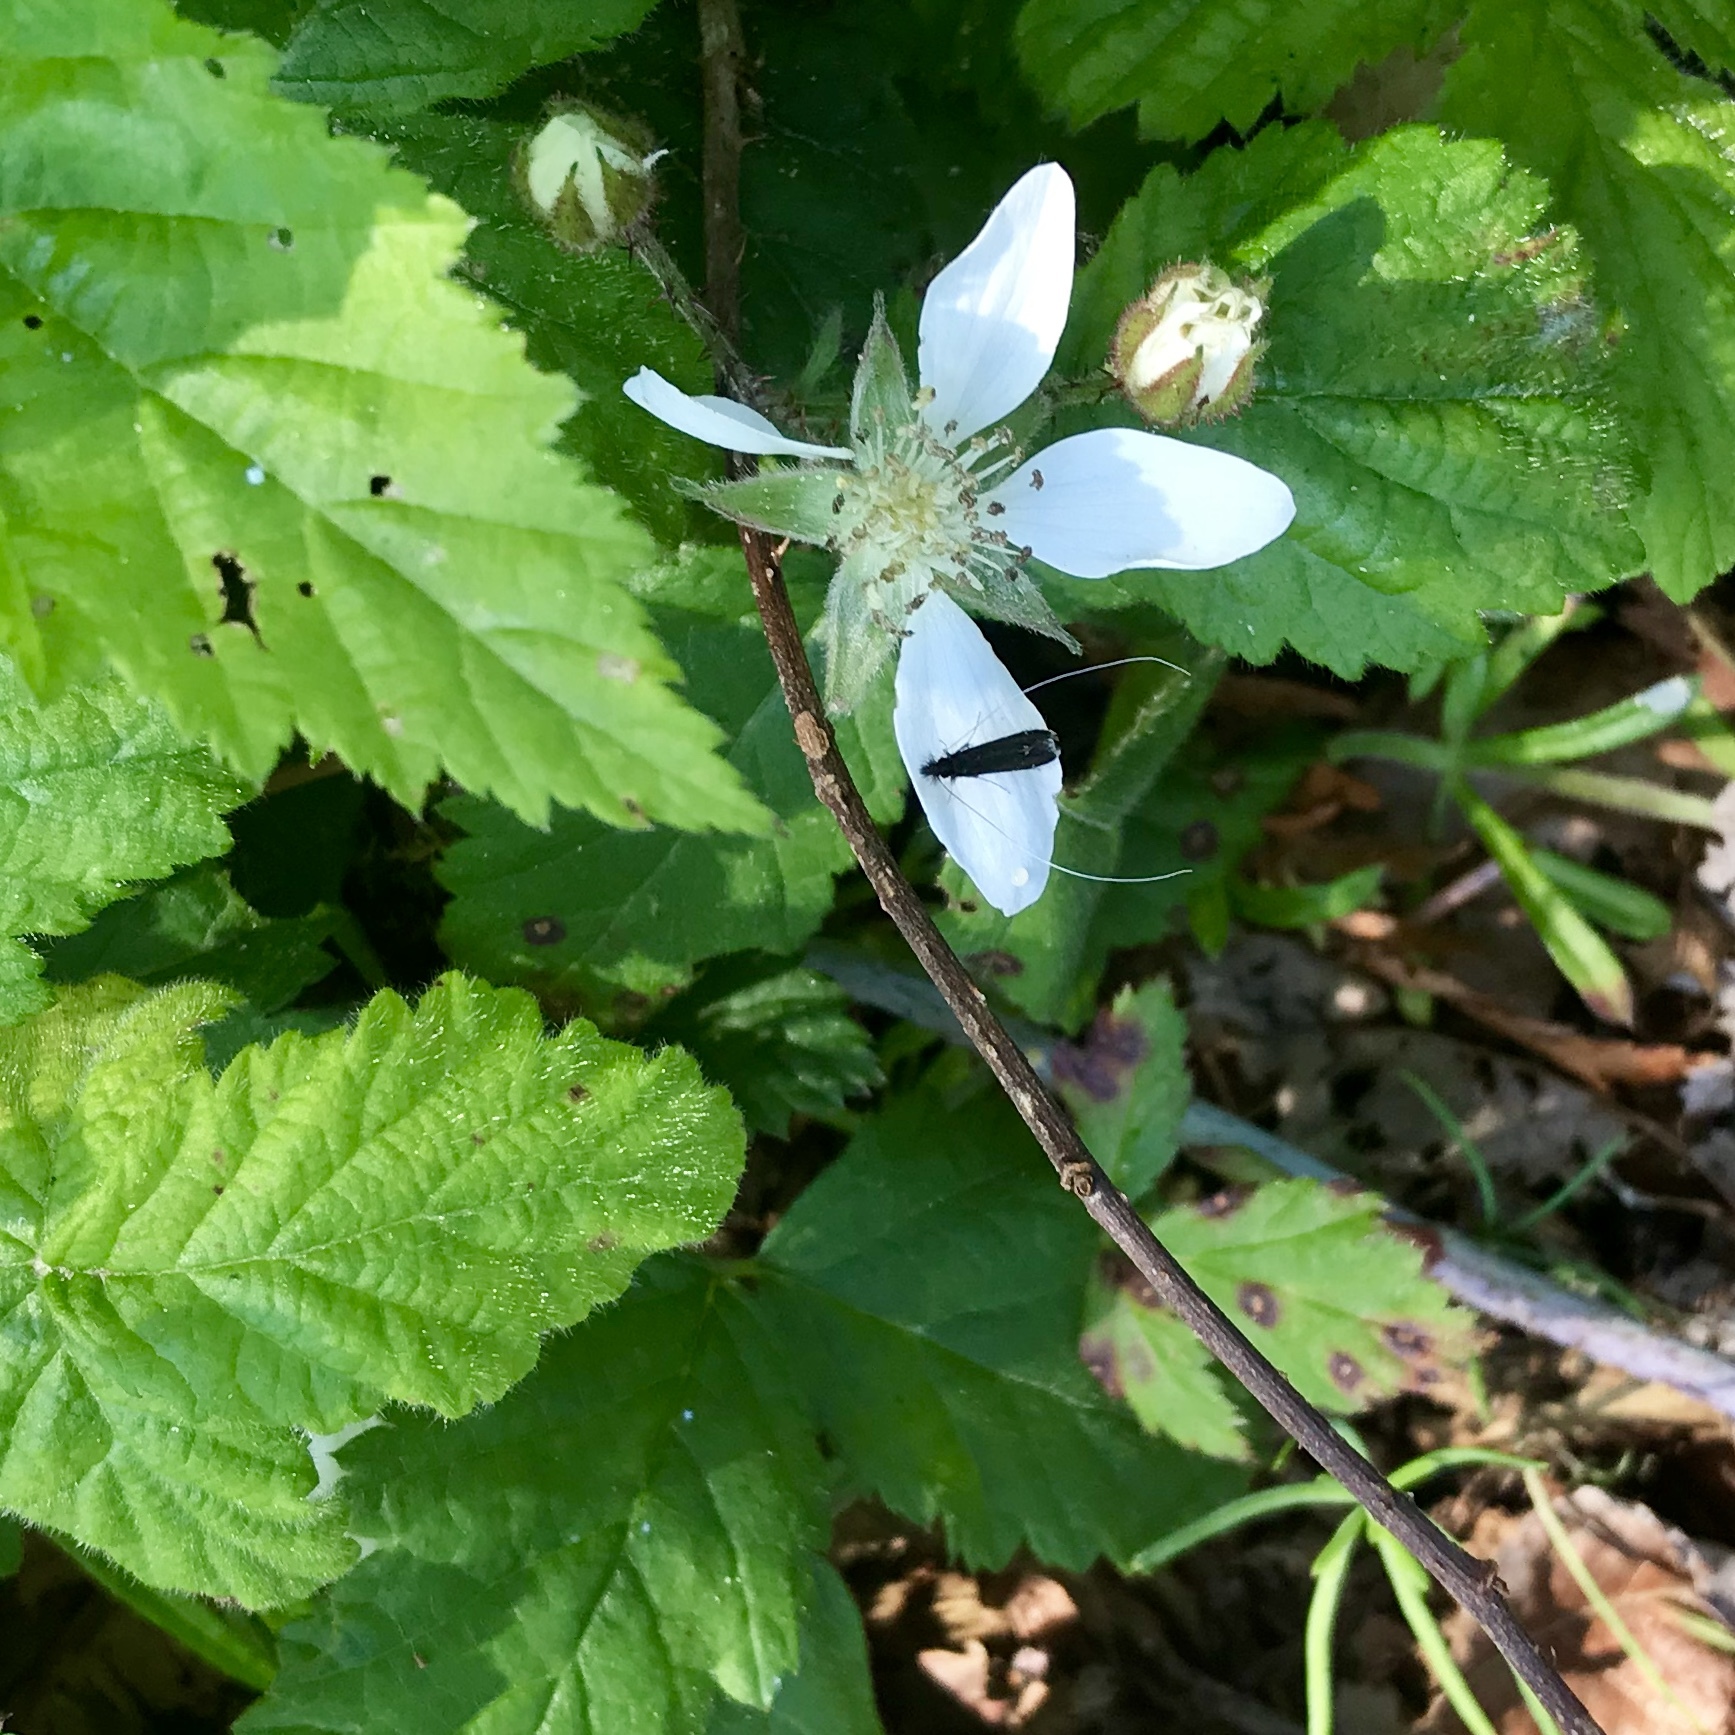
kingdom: Animalia
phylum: Arthropoda
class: Insecta
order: Lepidoptera
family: Adelidae
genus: Adela
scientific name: Adela septentrionella
